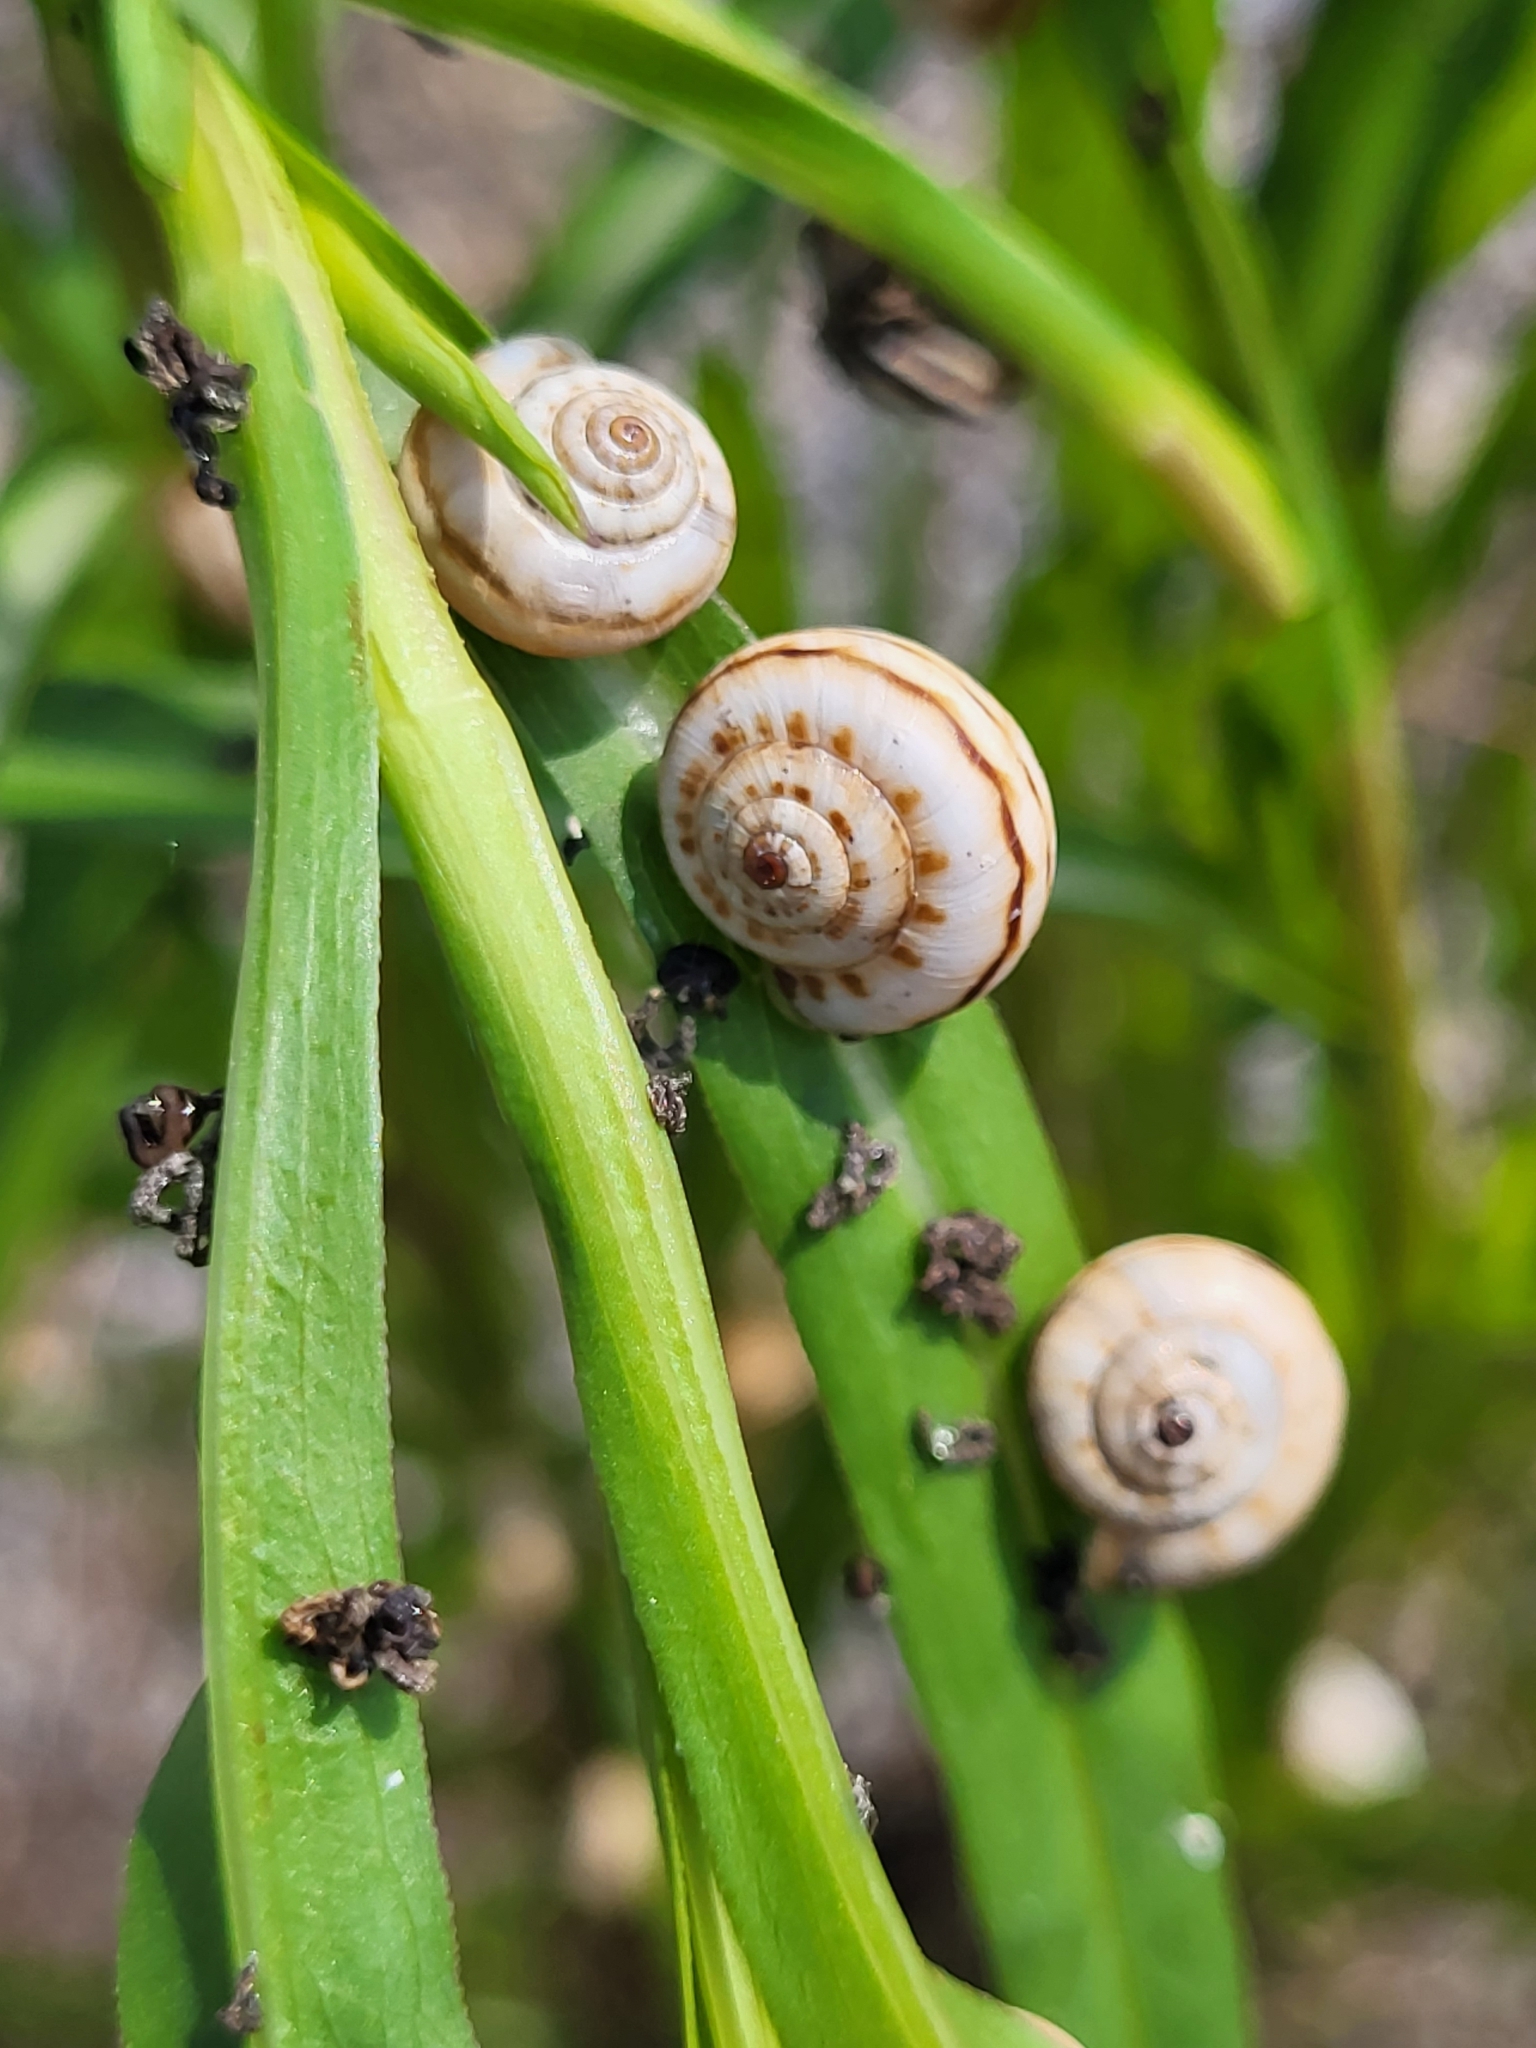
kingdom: Animalia
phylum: Mollusca
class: Gastropoda
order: Stylommatophora
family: Geomitridae
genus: Xeropicta
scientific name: Xeropicta krynickii
